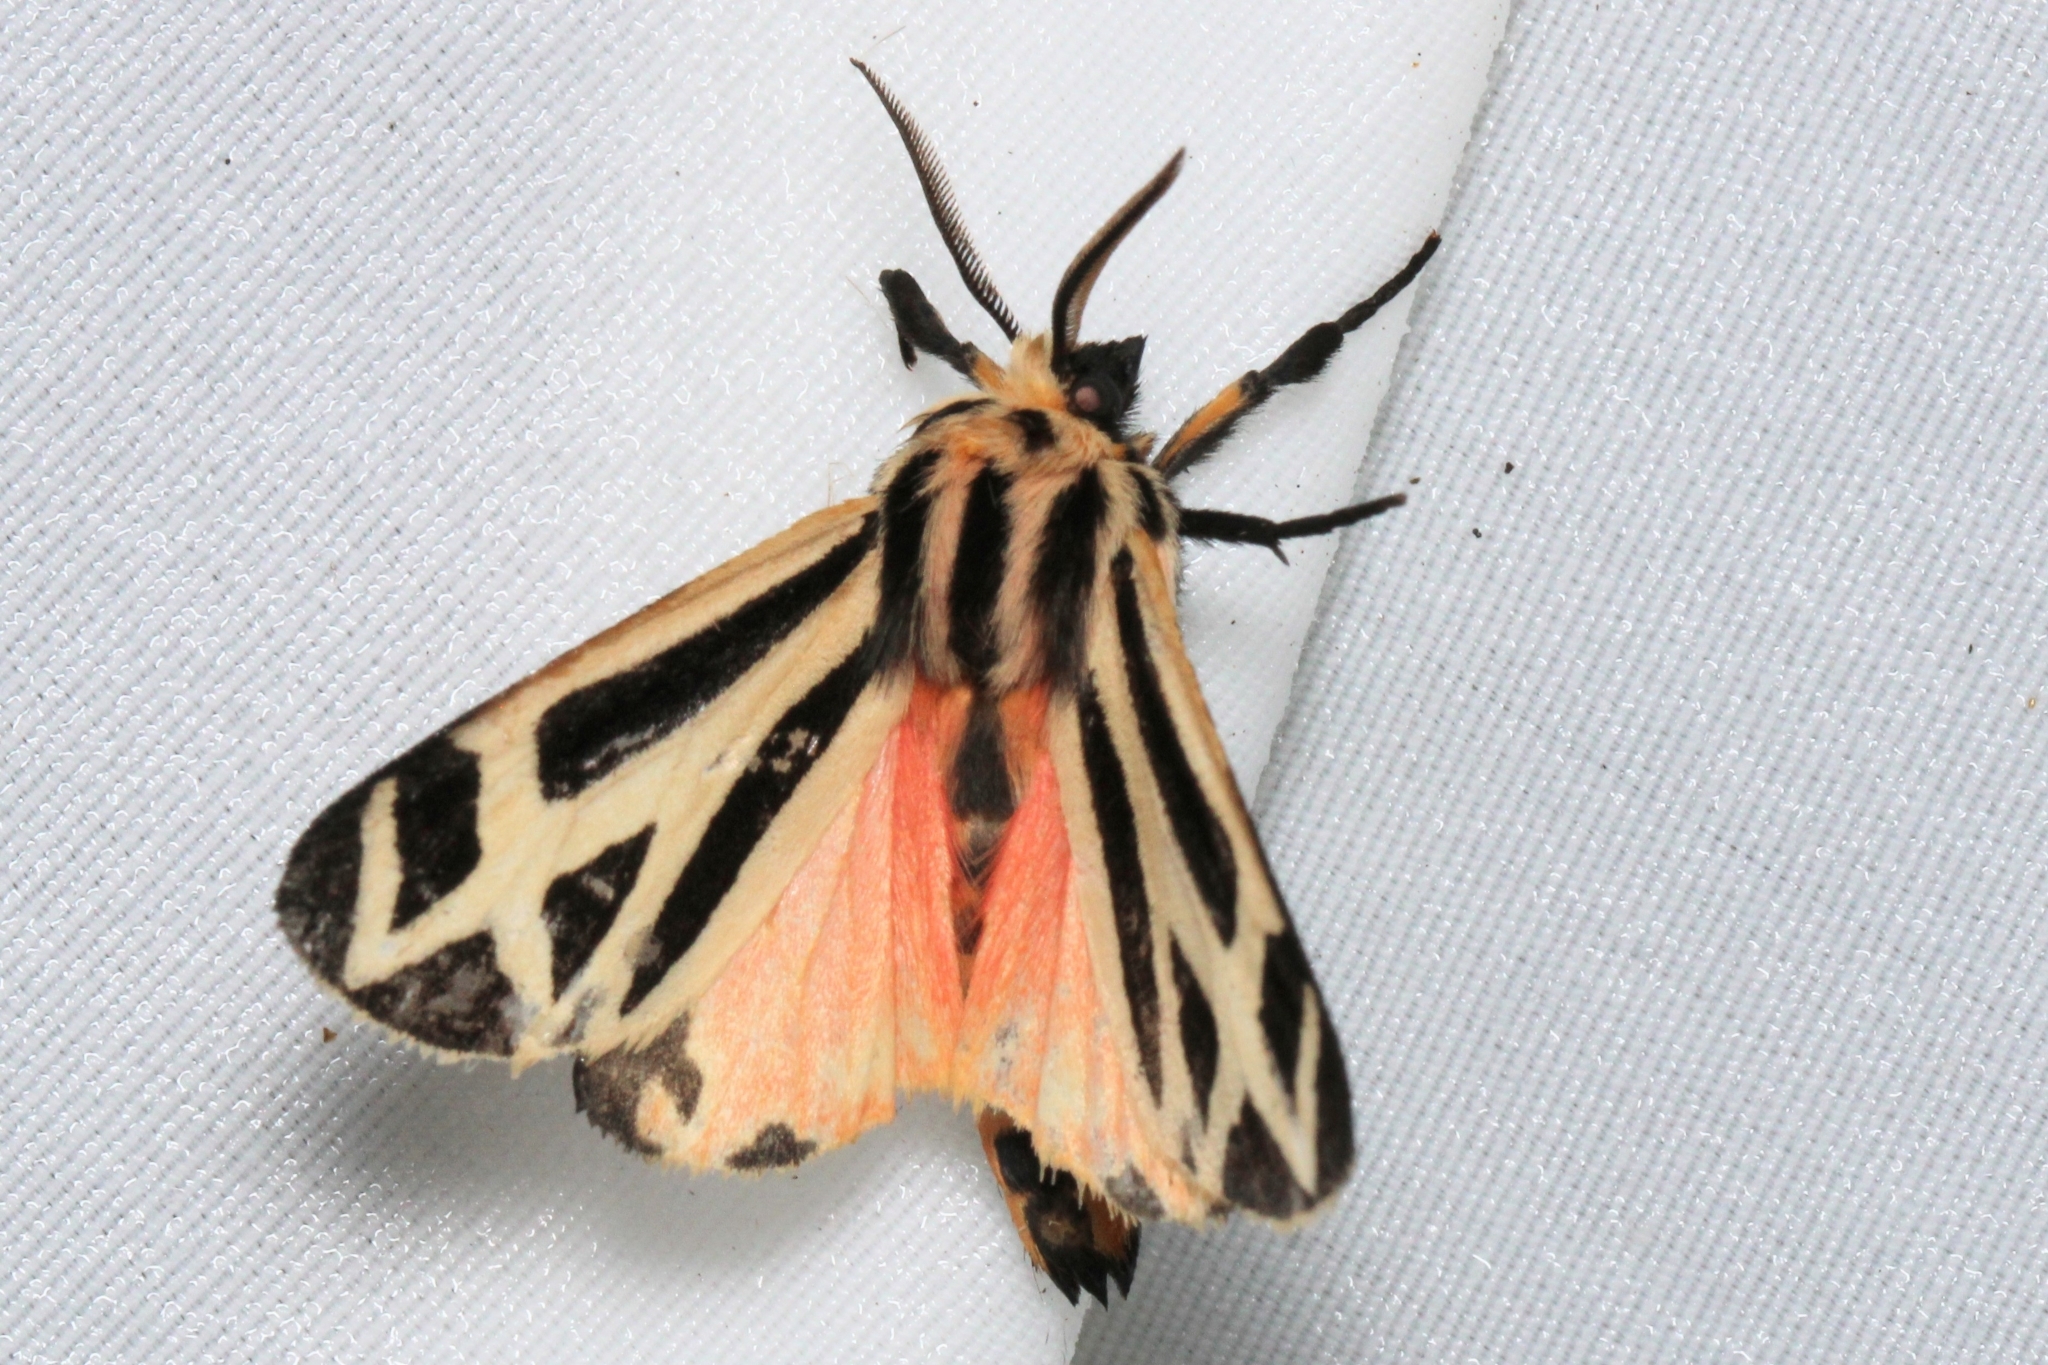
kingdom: Animalia
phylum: Arthropoda
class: Insecta
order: Lepidoptera
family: Erebidae
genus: Apantesis
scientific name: Apantesis phalerata
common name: Harnessed tiger moth
